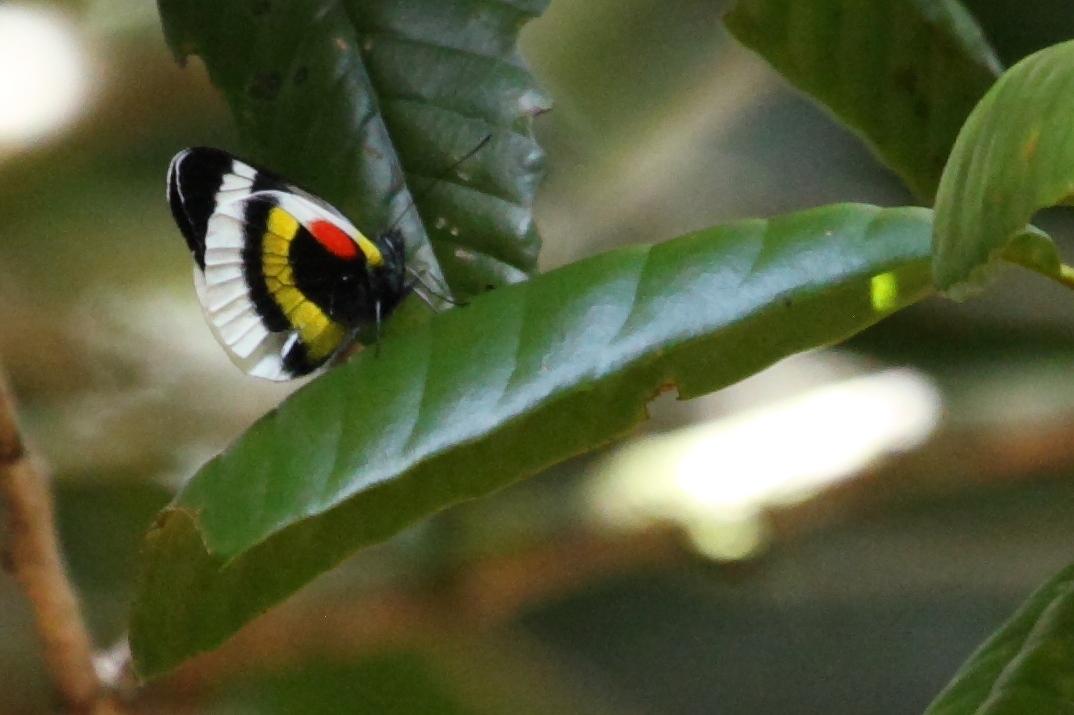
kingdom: Animalia
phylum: Arthropoda
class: Insecta
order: Lepidoptera
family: Pieridae
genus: Delias
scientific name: Delias ellipsis
